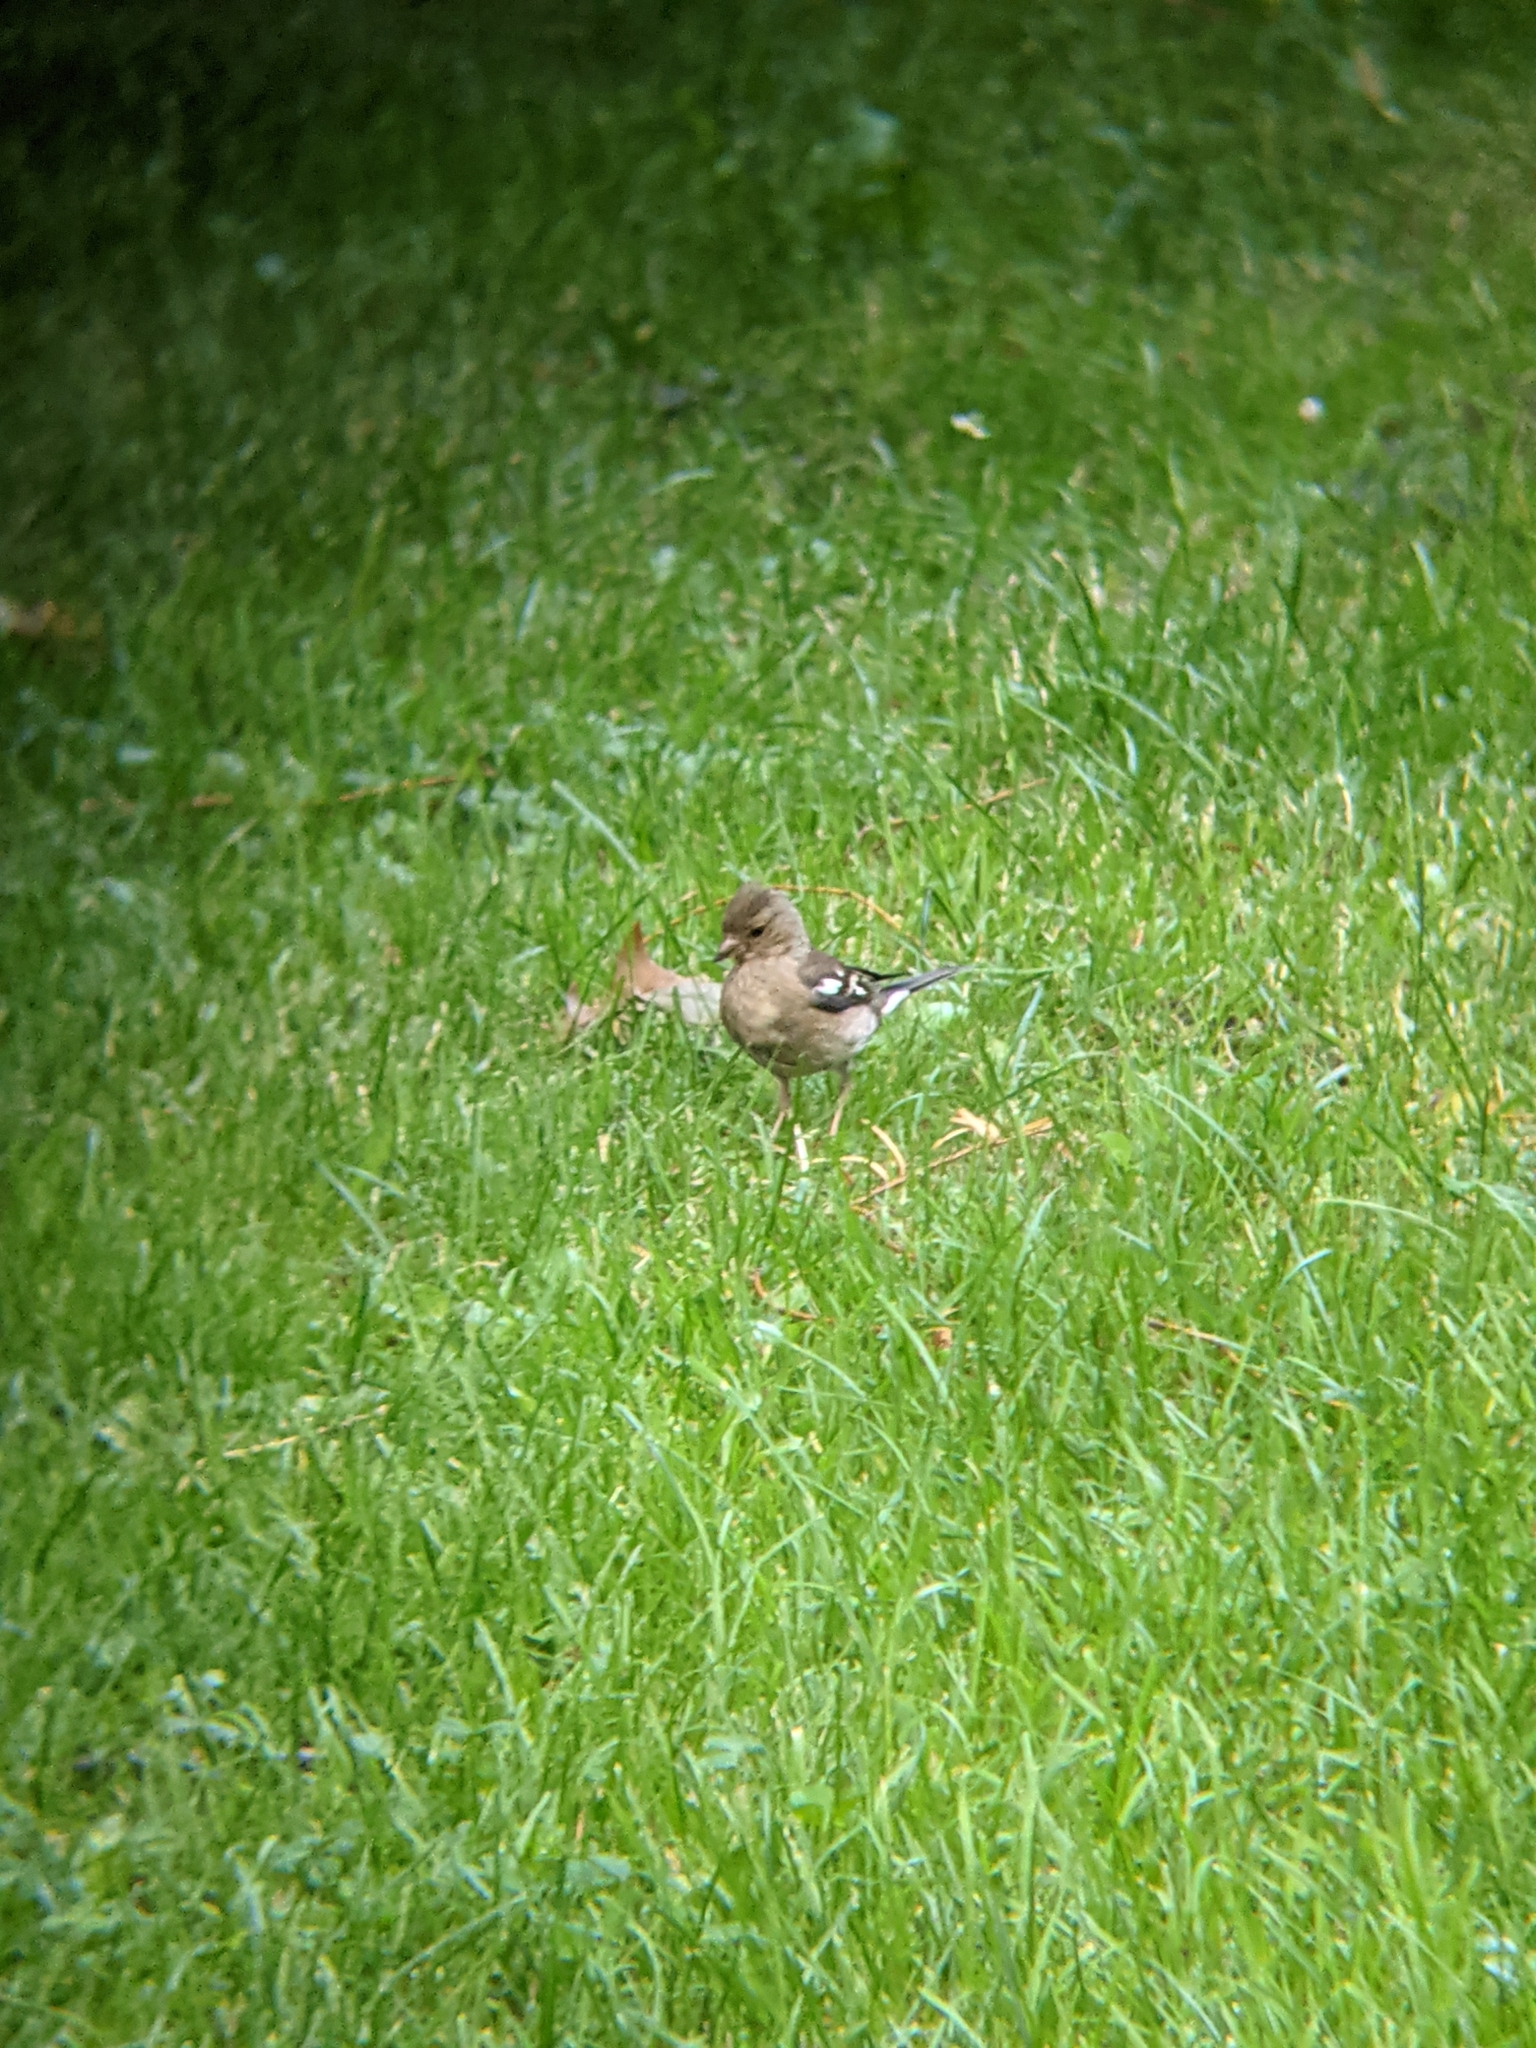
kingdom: Animalia
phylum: Chordata
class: Aves
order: Passeriformes
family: Fringillidae
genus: Fringilla
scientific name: Fringilla coelebs
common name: Common chaffinch
